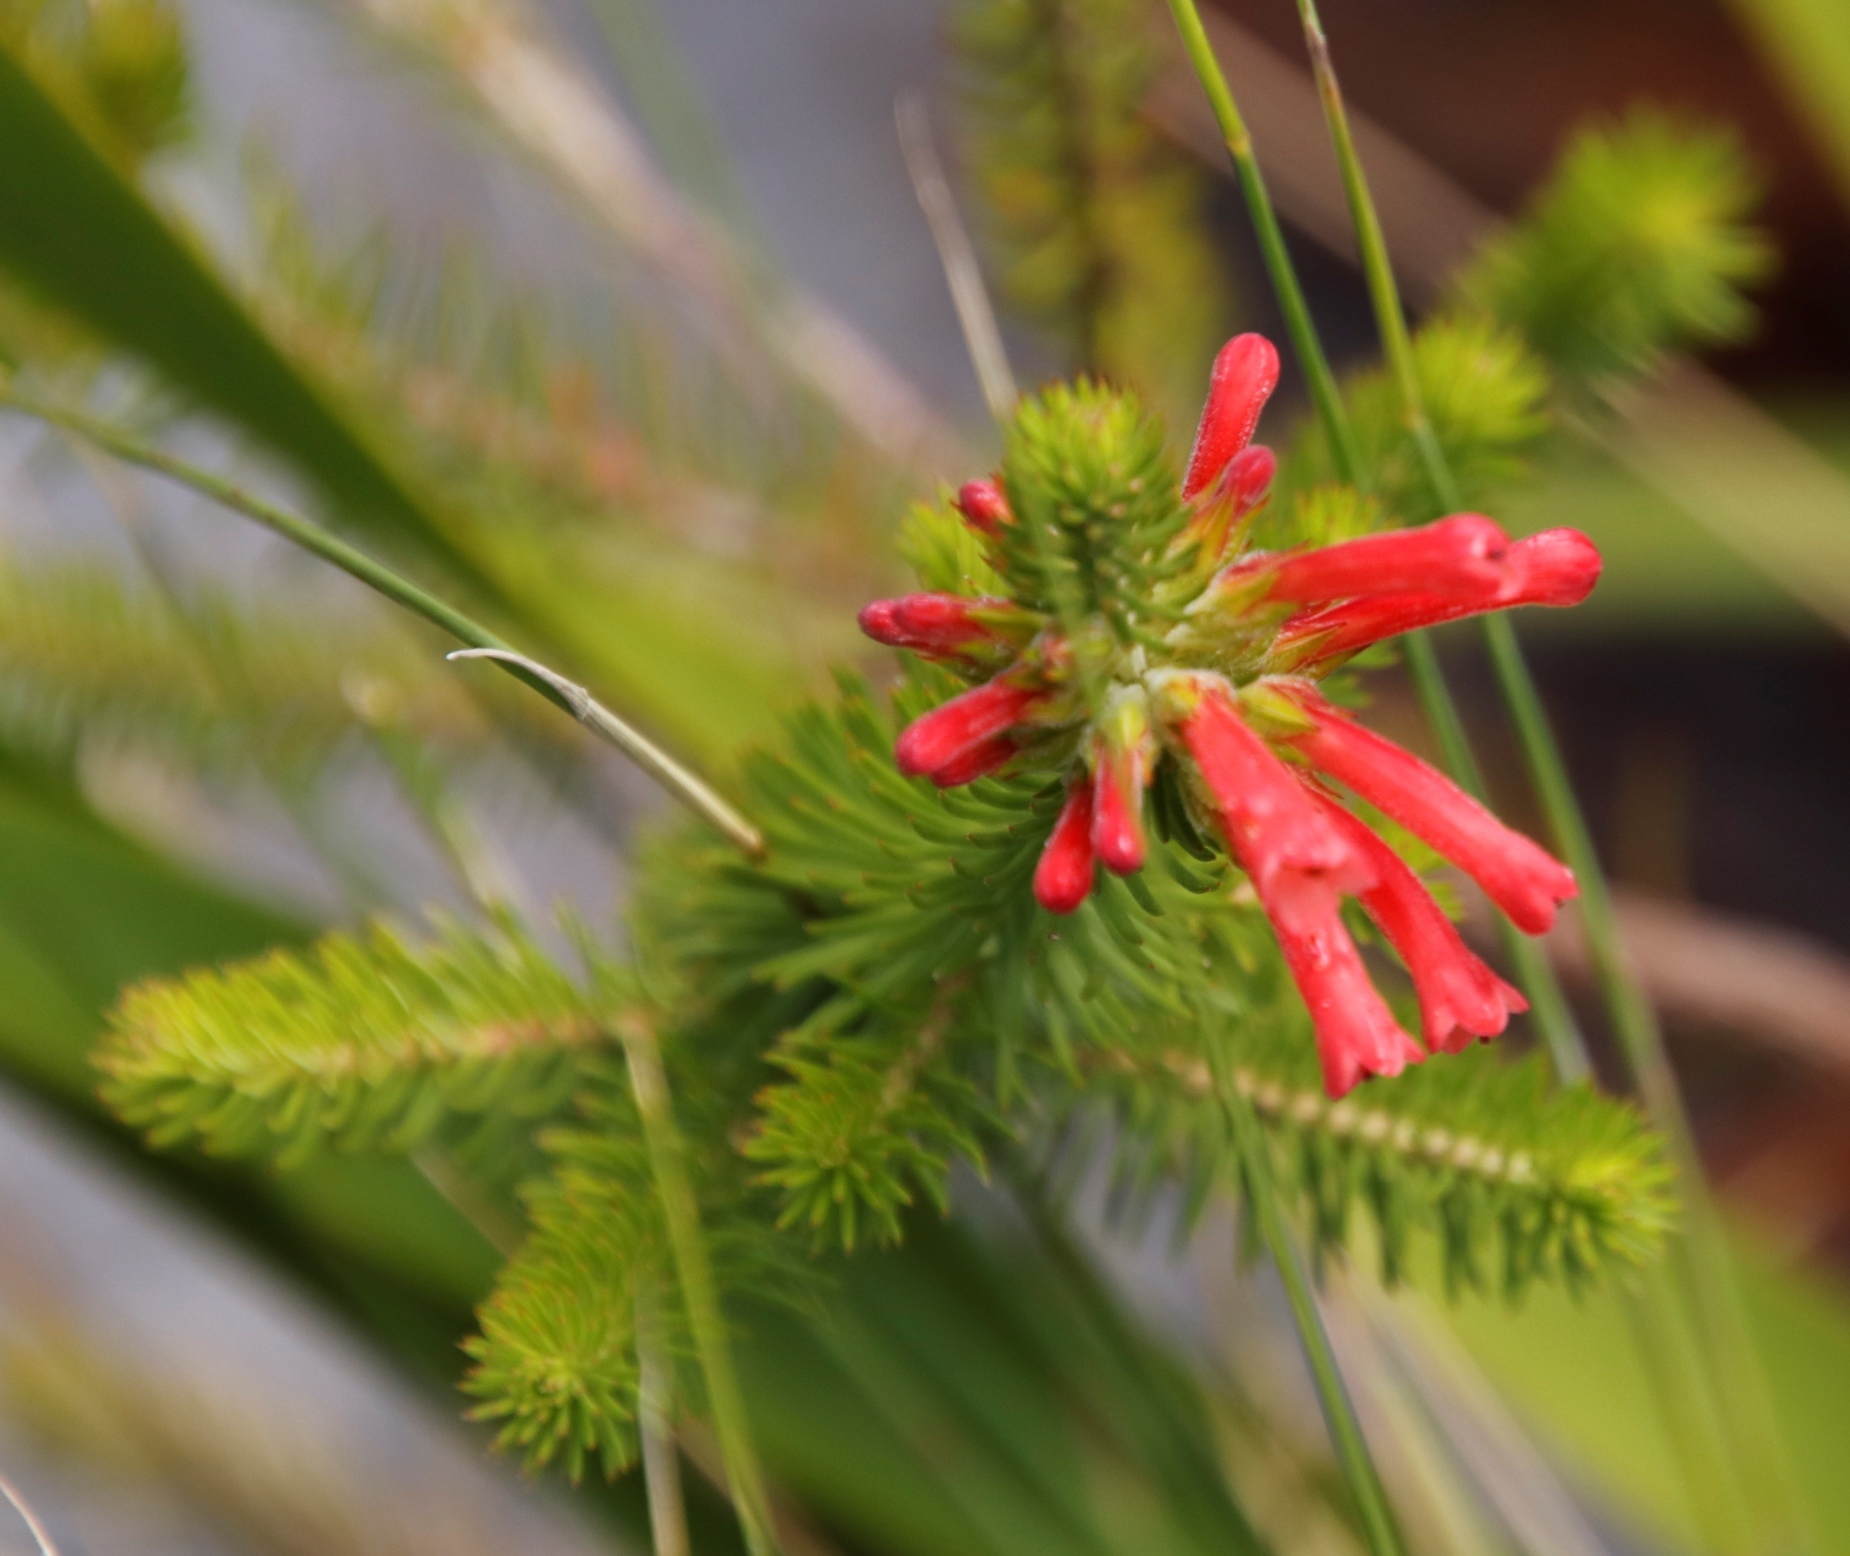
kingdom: Plantae
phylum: Tracheophyta
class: Magnoliopsida
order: Ericales
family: Ericaceae
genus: Erica
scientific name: Erica abietina
